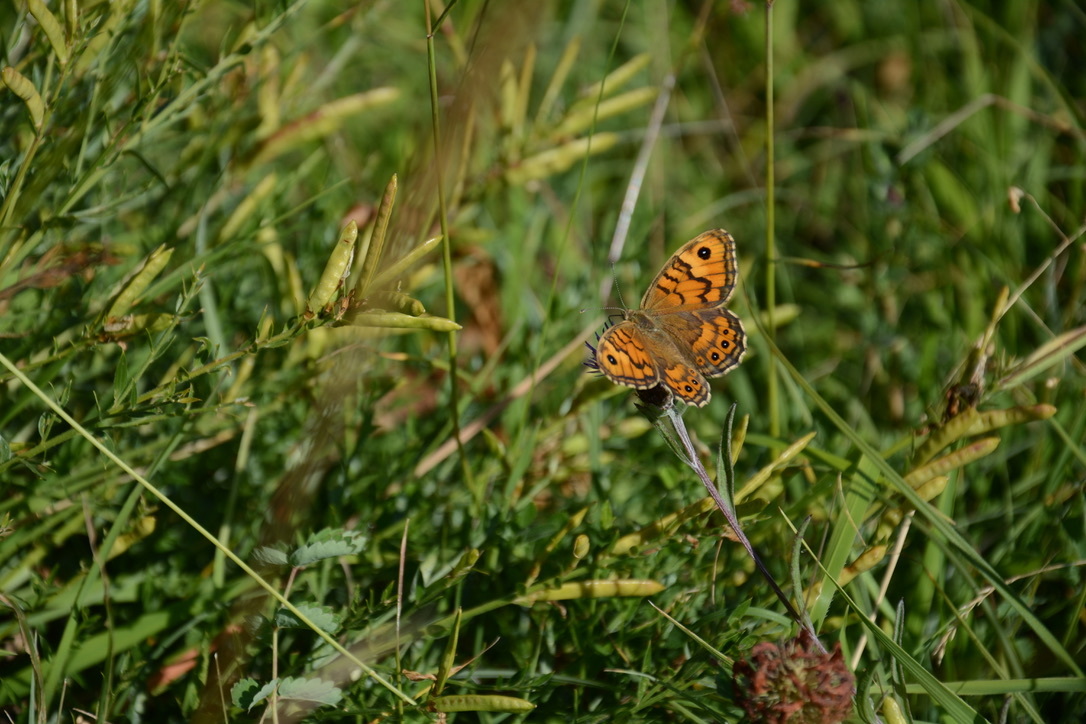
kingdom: Animalia
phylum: Arthropoda
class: Insecta
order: Lepidoptera
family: Nymphalidae
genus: Pararge
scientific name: Pararge Lasiommata megera
